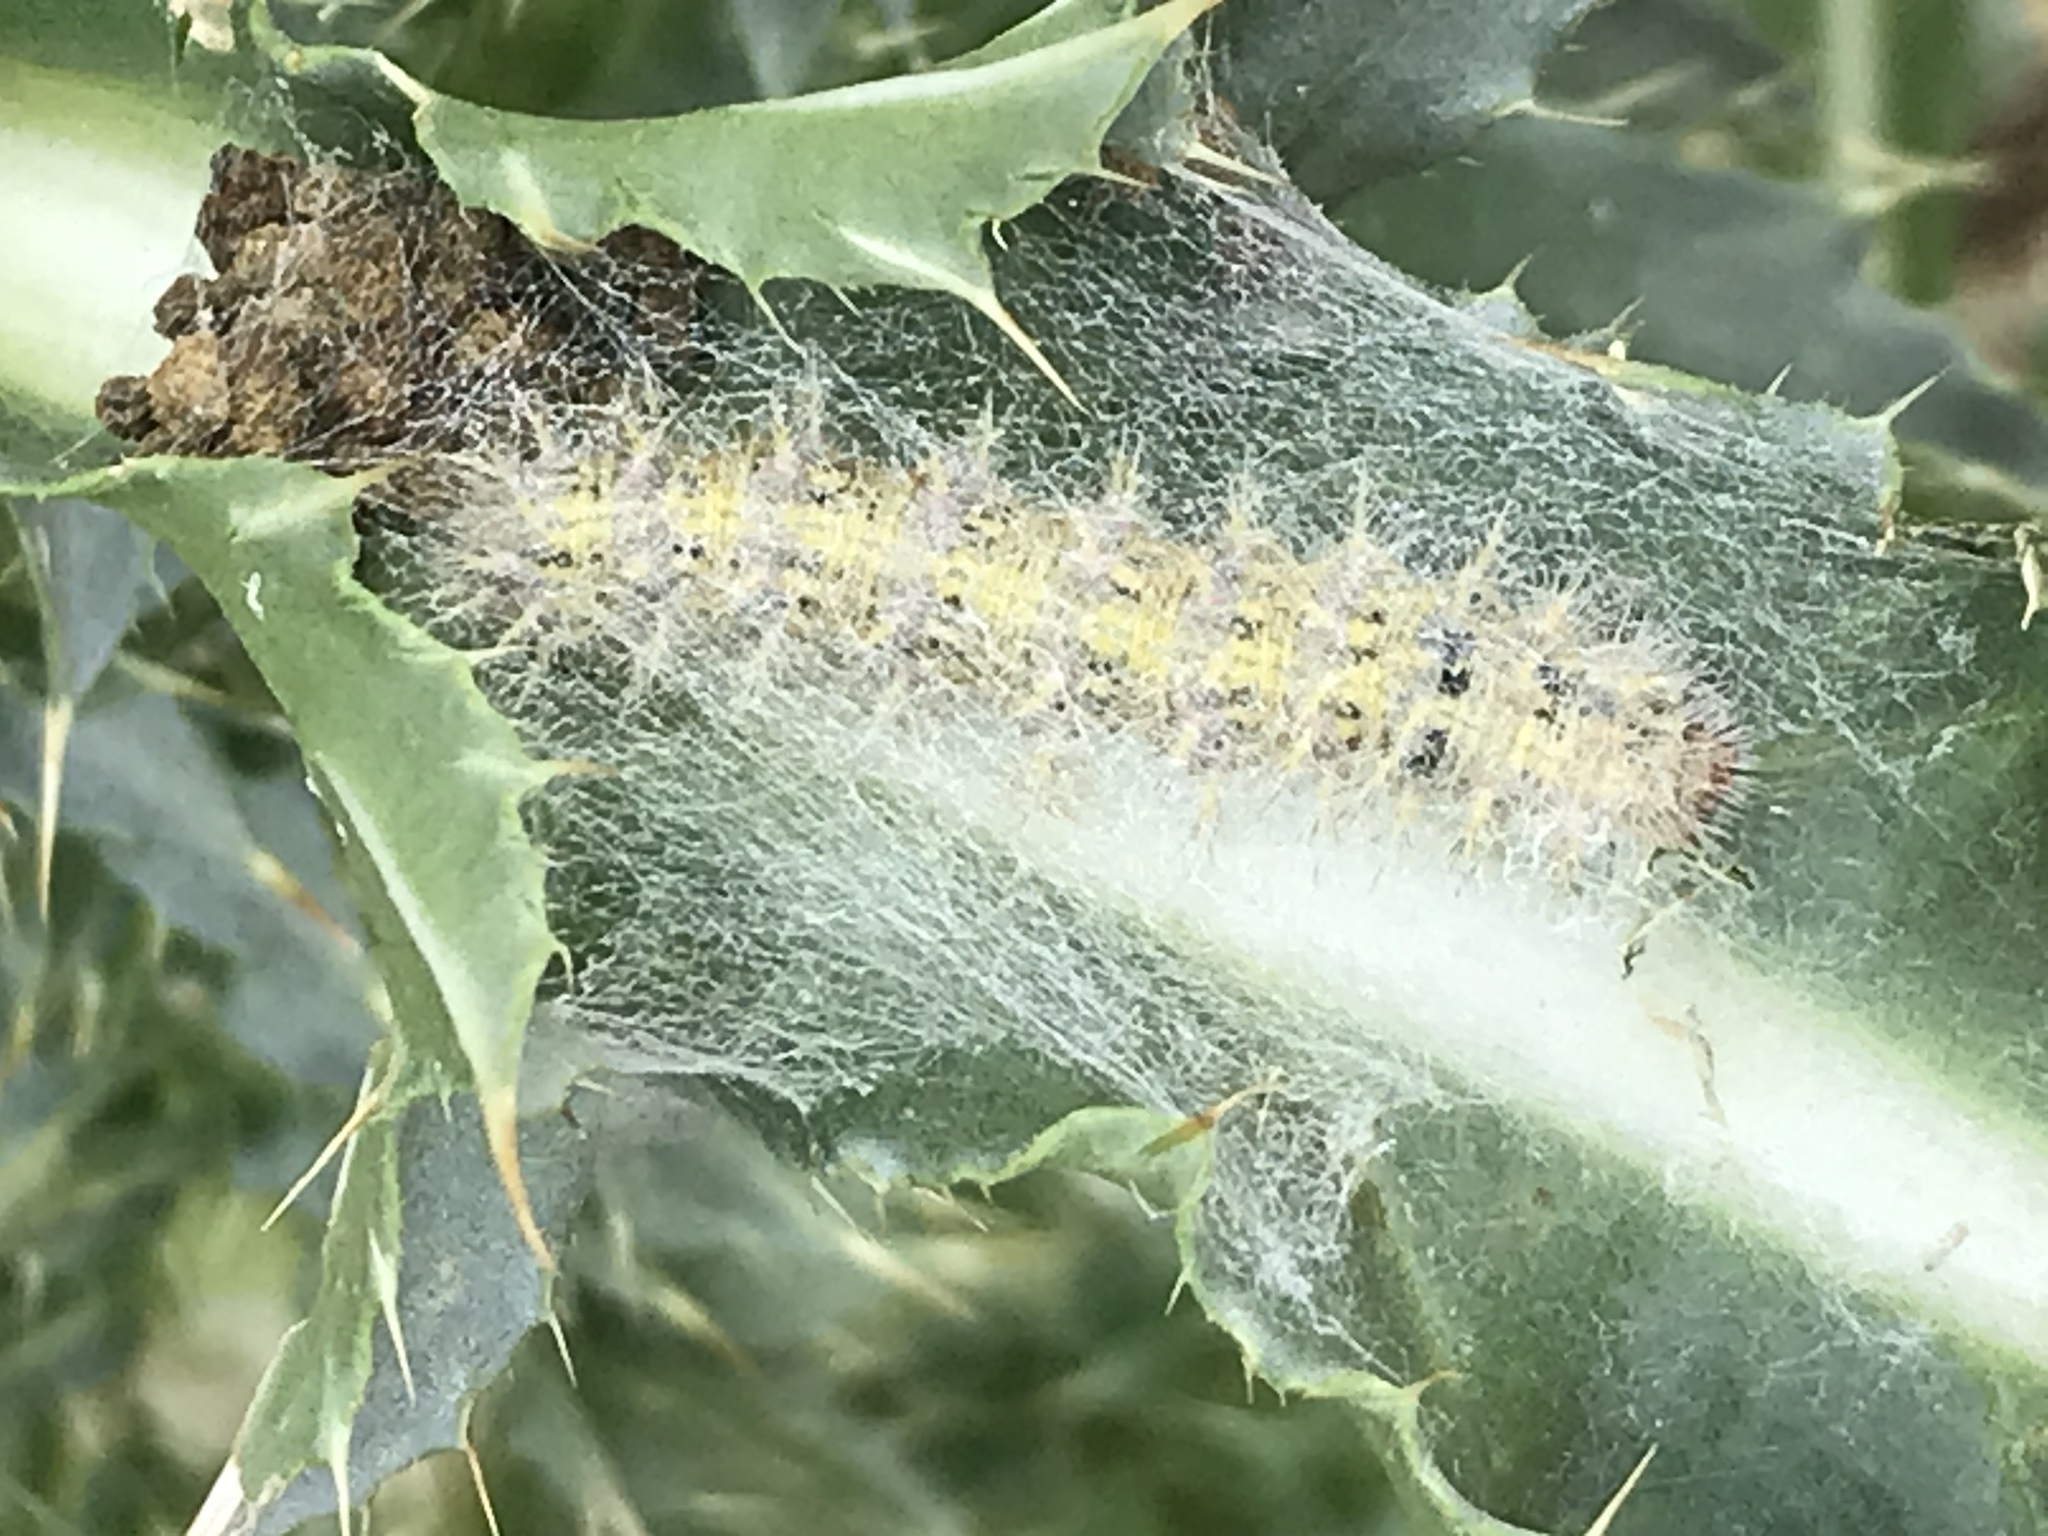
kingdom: Animalia
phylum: Arthropoda
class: Insecta
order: Lepidoptera
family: Nymphalidae
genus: Vanessa
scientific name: Vanessa cardui
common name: Painted lady
